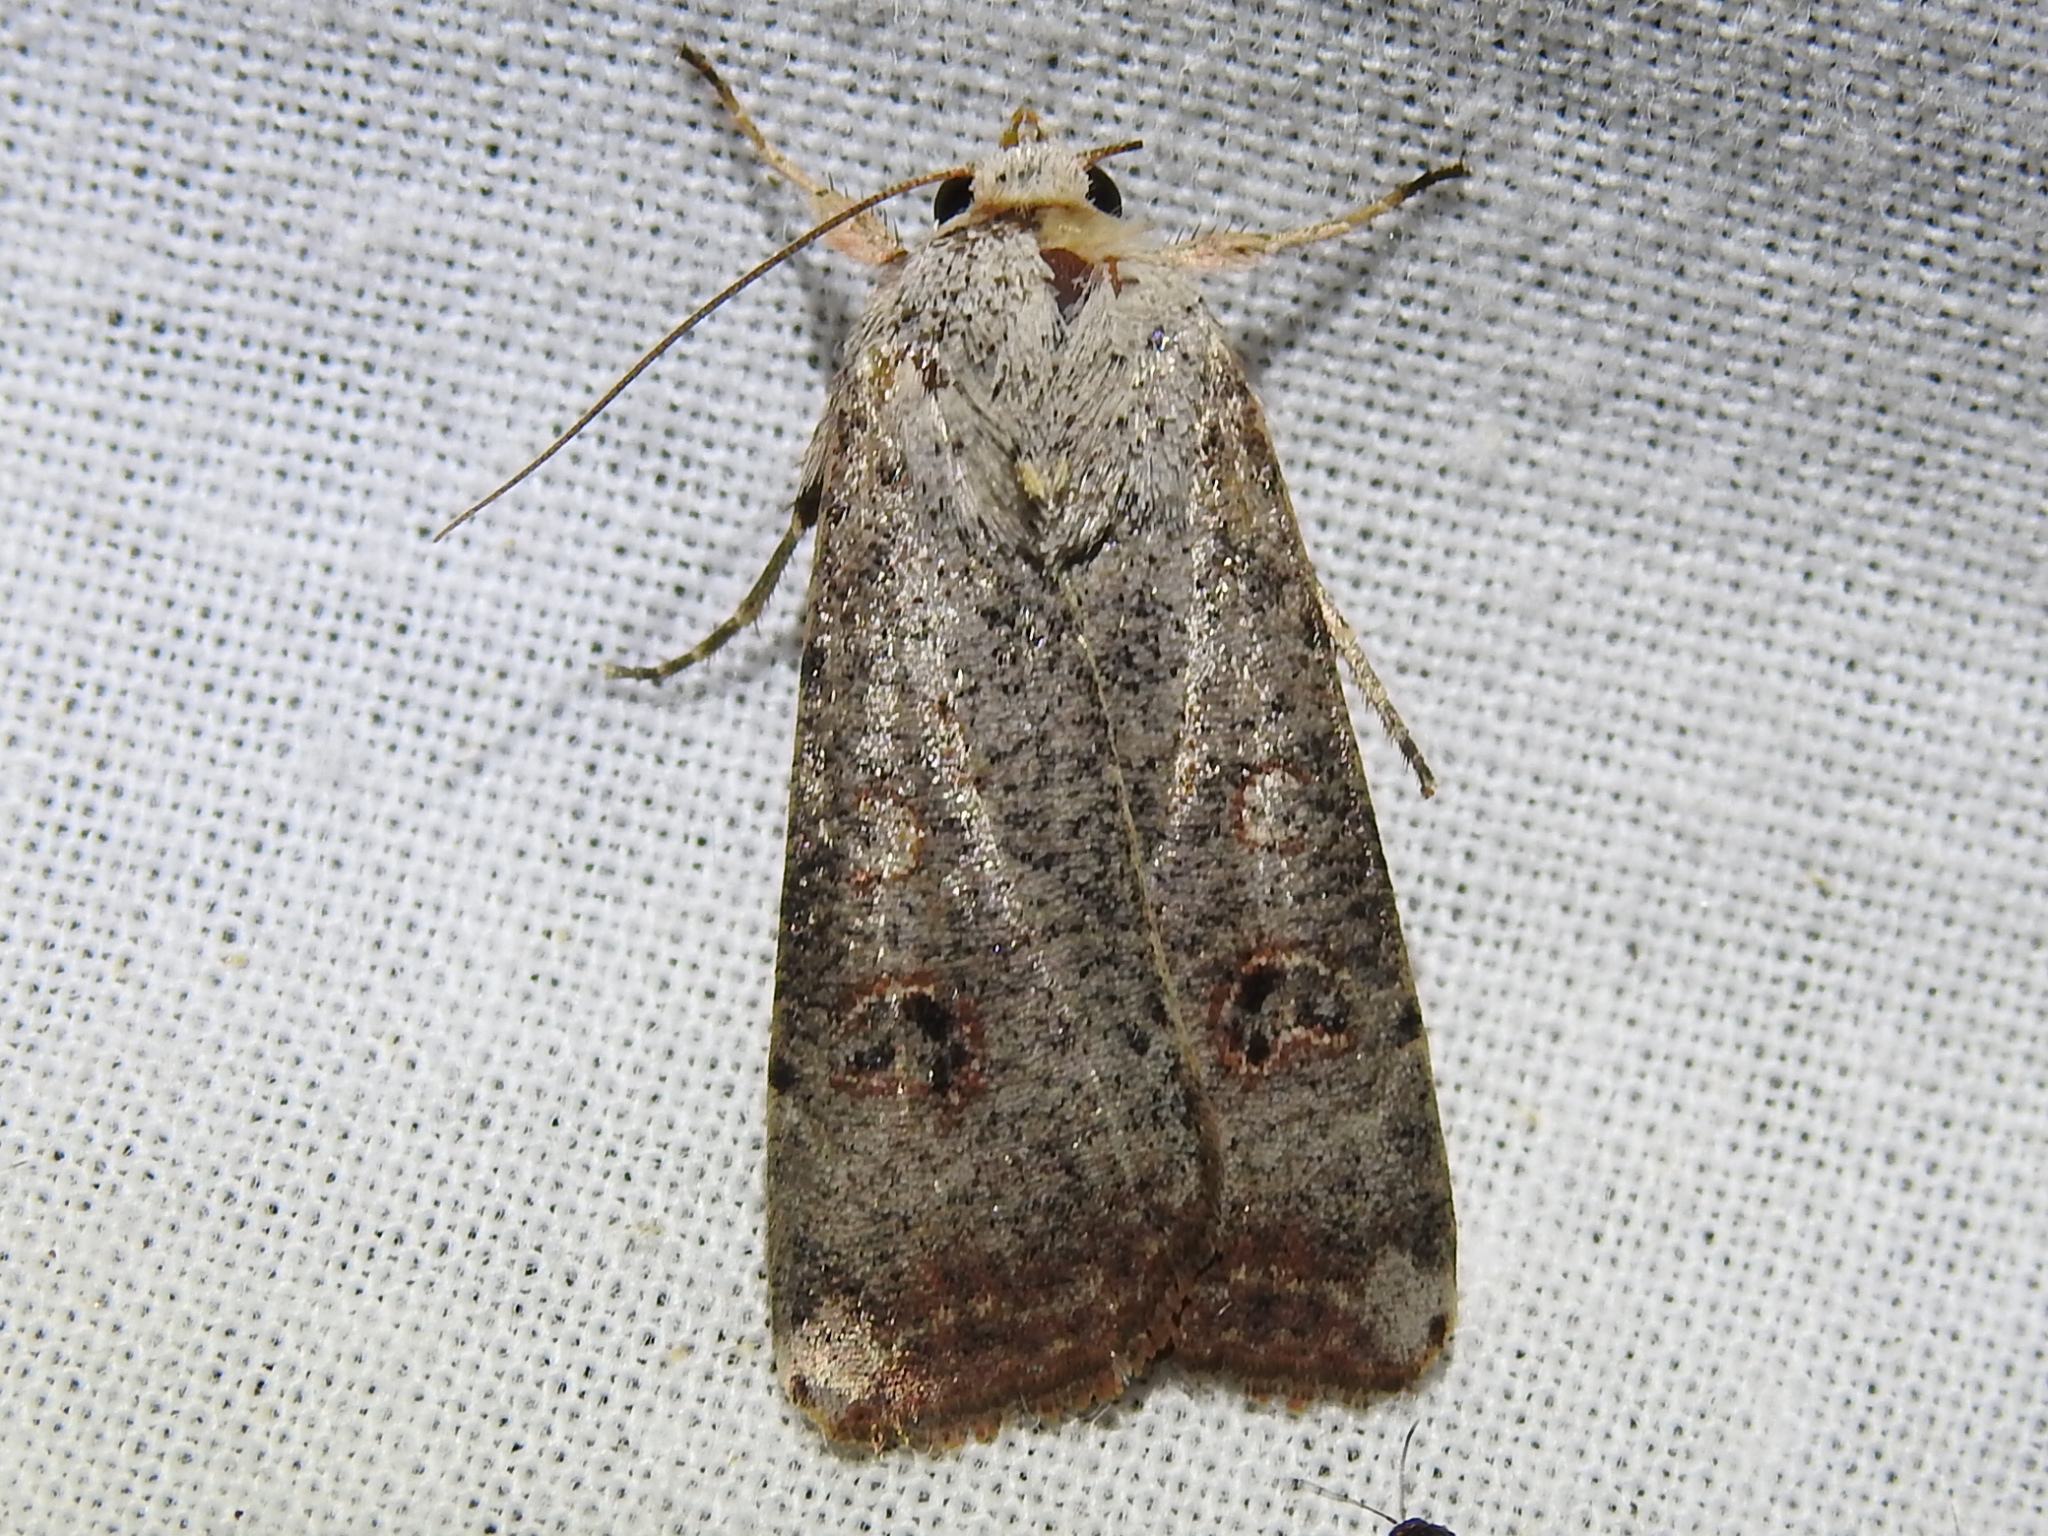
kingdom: Animalia
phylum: Arthropoda
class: Insecta
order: Lepidoptera
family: Noctuidae
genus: Anicla
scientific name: Anicla infecta
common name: Green cutworm
